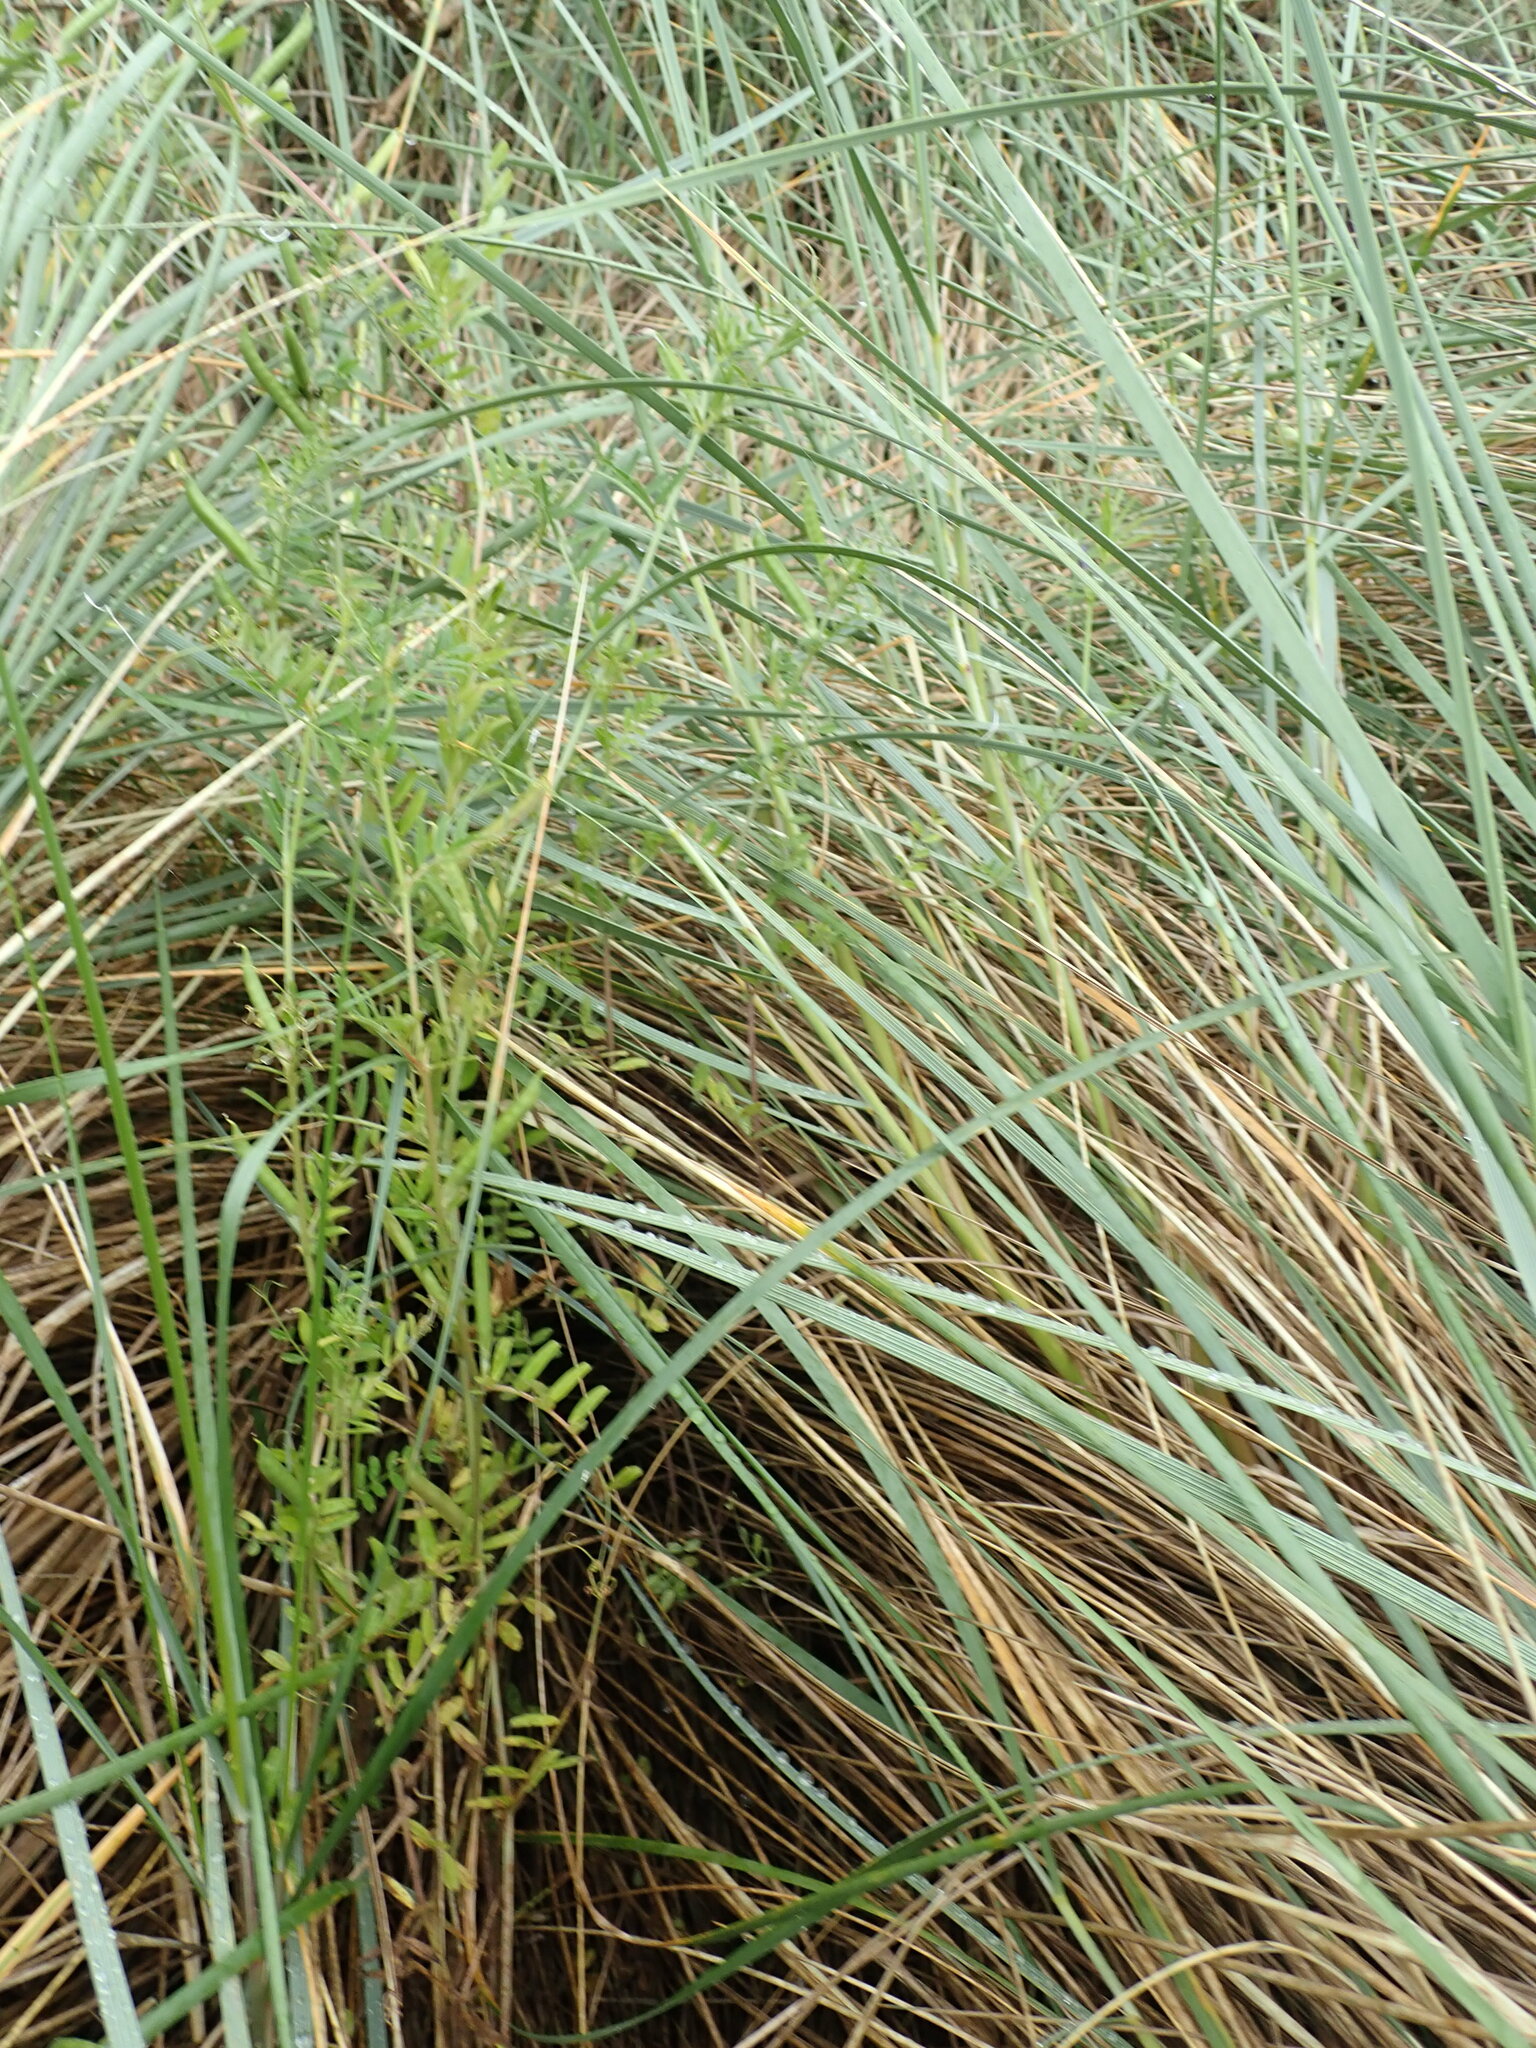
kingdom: Plantae
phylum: Tracheophyta
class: Magnoliopsida
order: Fabales
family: Fabaceae
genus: Vicia
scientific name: Vicia sativa
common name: Garden vetch
